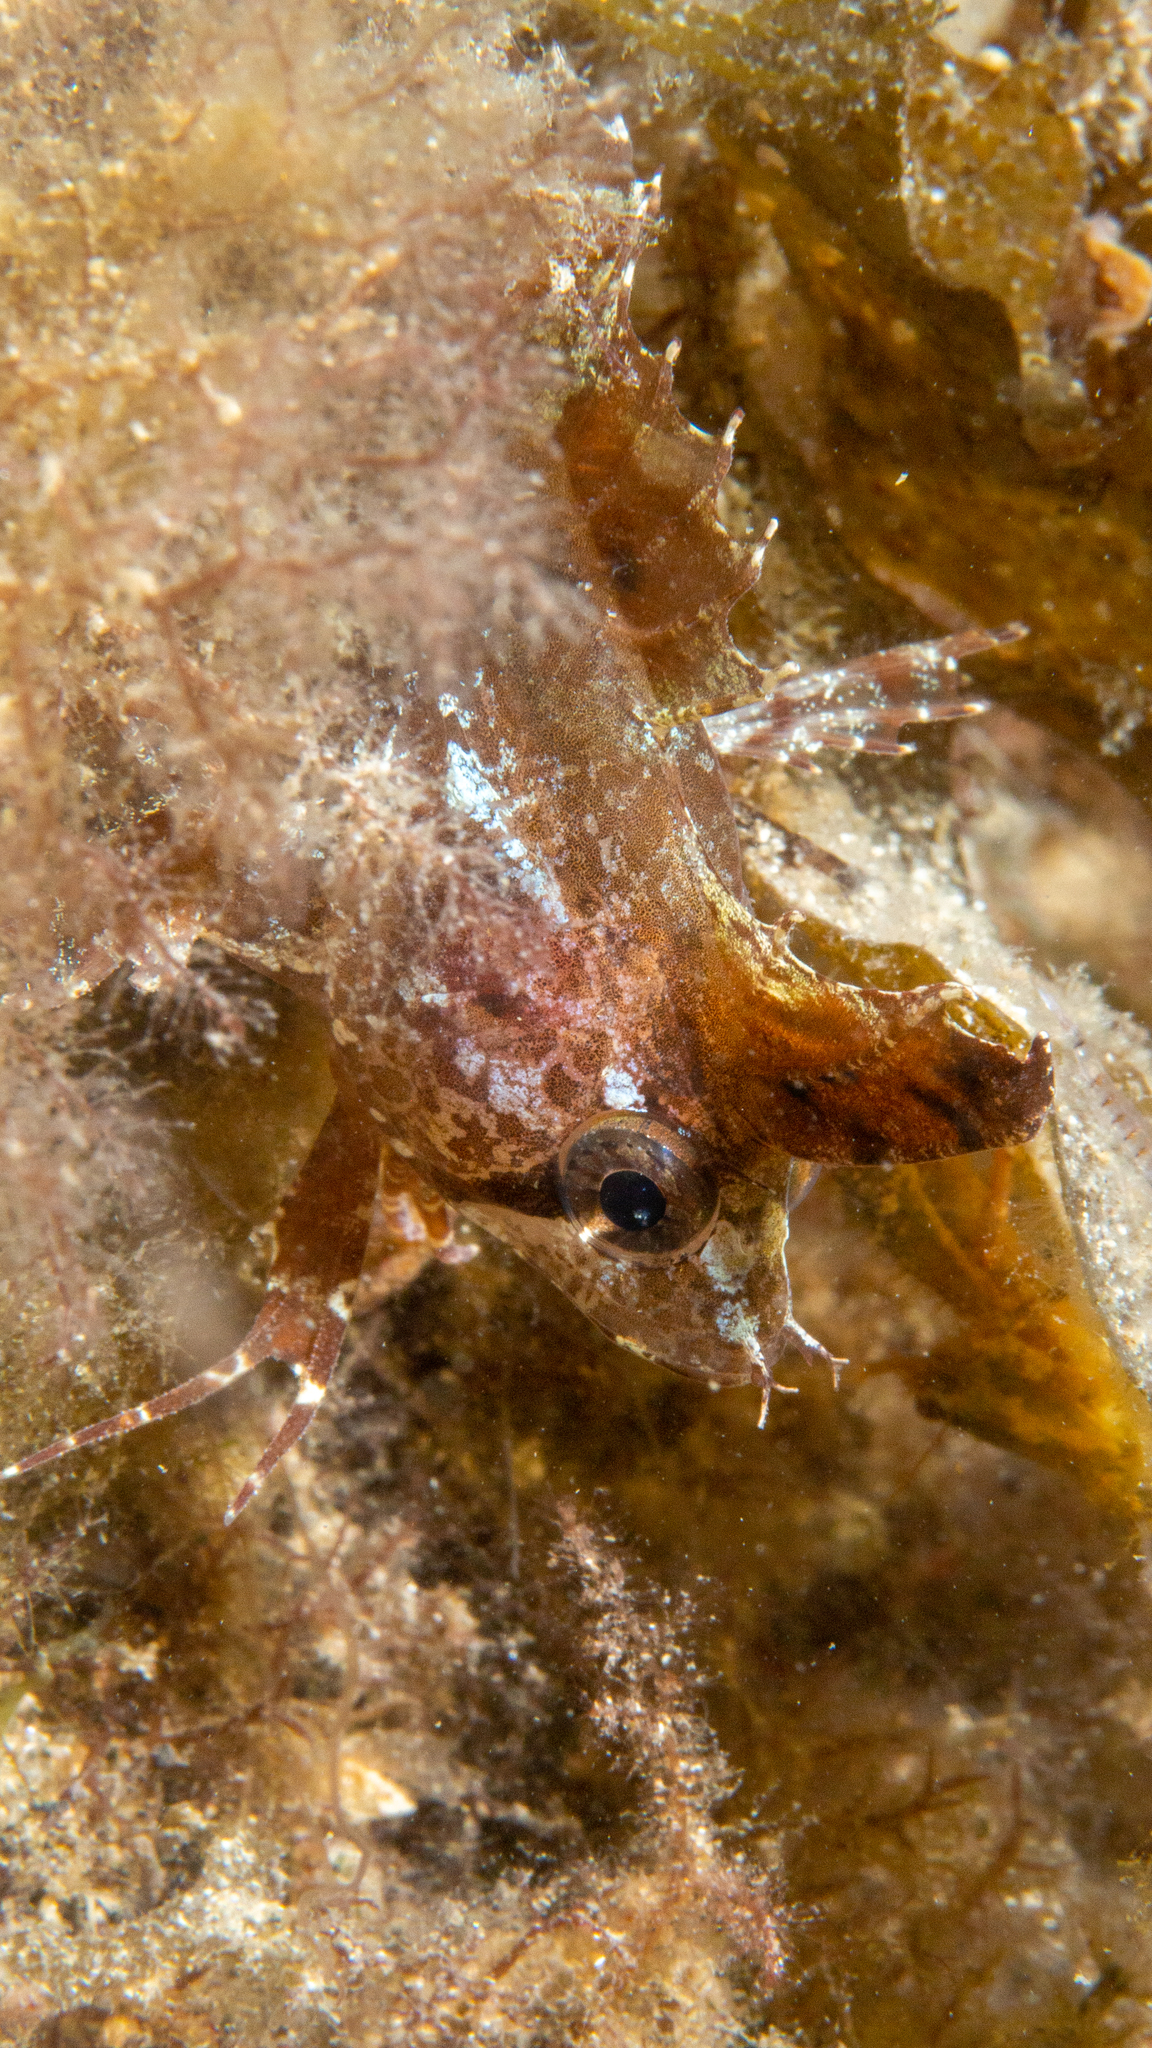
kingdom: Animalia
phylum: Chordata
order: Perciformes
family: Clinidae
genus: Cristiceps
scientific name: Cristiceps australis
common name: Crested weedfish
